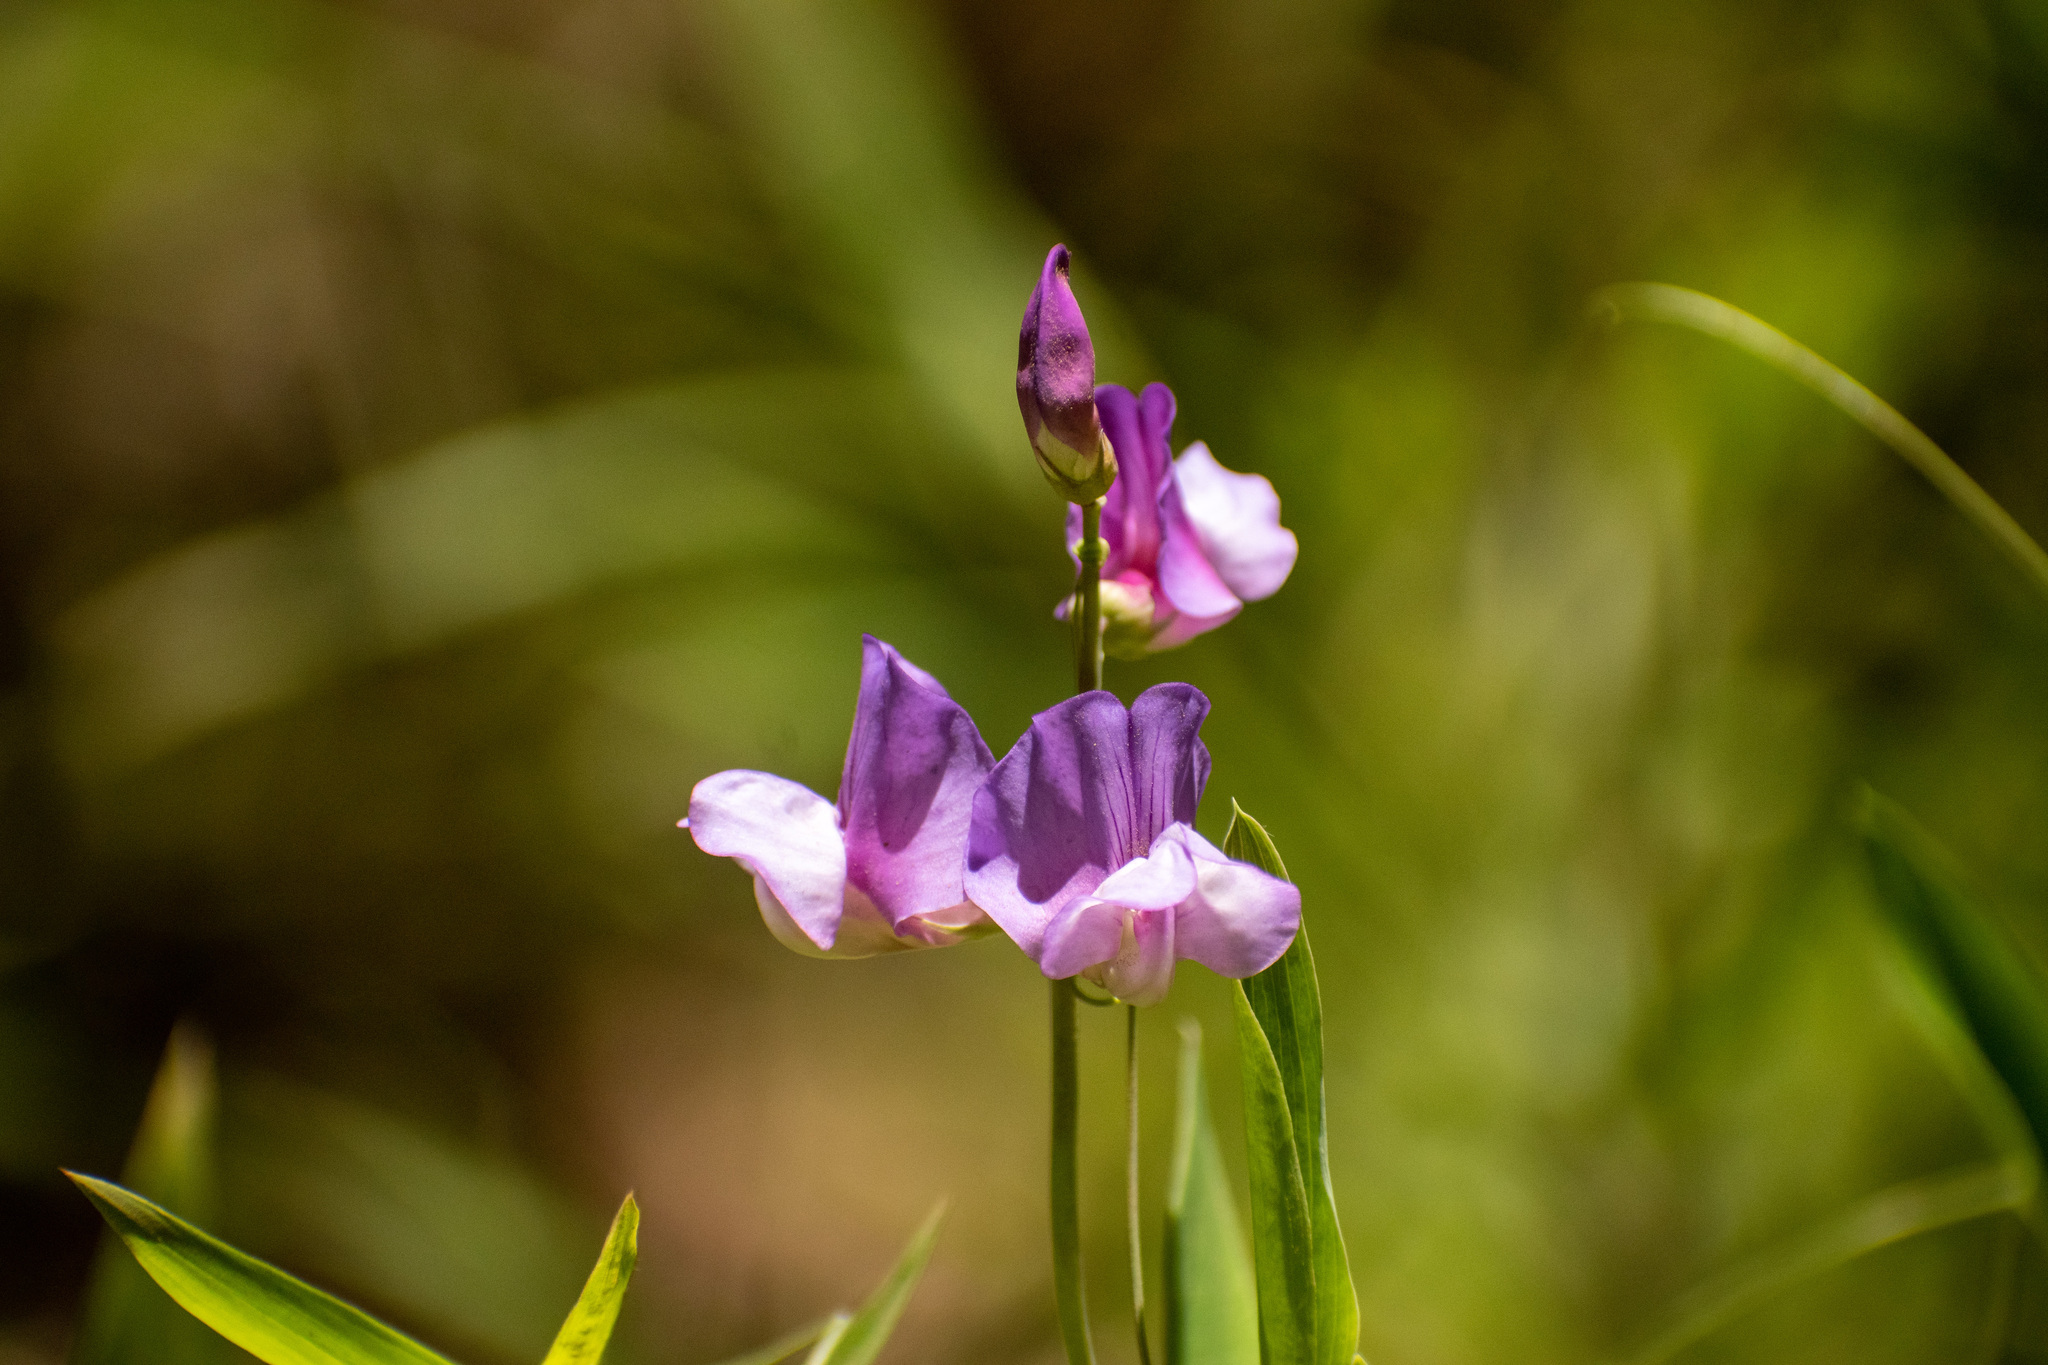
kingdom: Plantae
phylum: Tracheophyta
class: Magnoliopsida
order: Fabales
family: Fabaceae
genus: Lathyrus
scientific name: Lathyrus magellanicus
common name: Lord anson's pea
